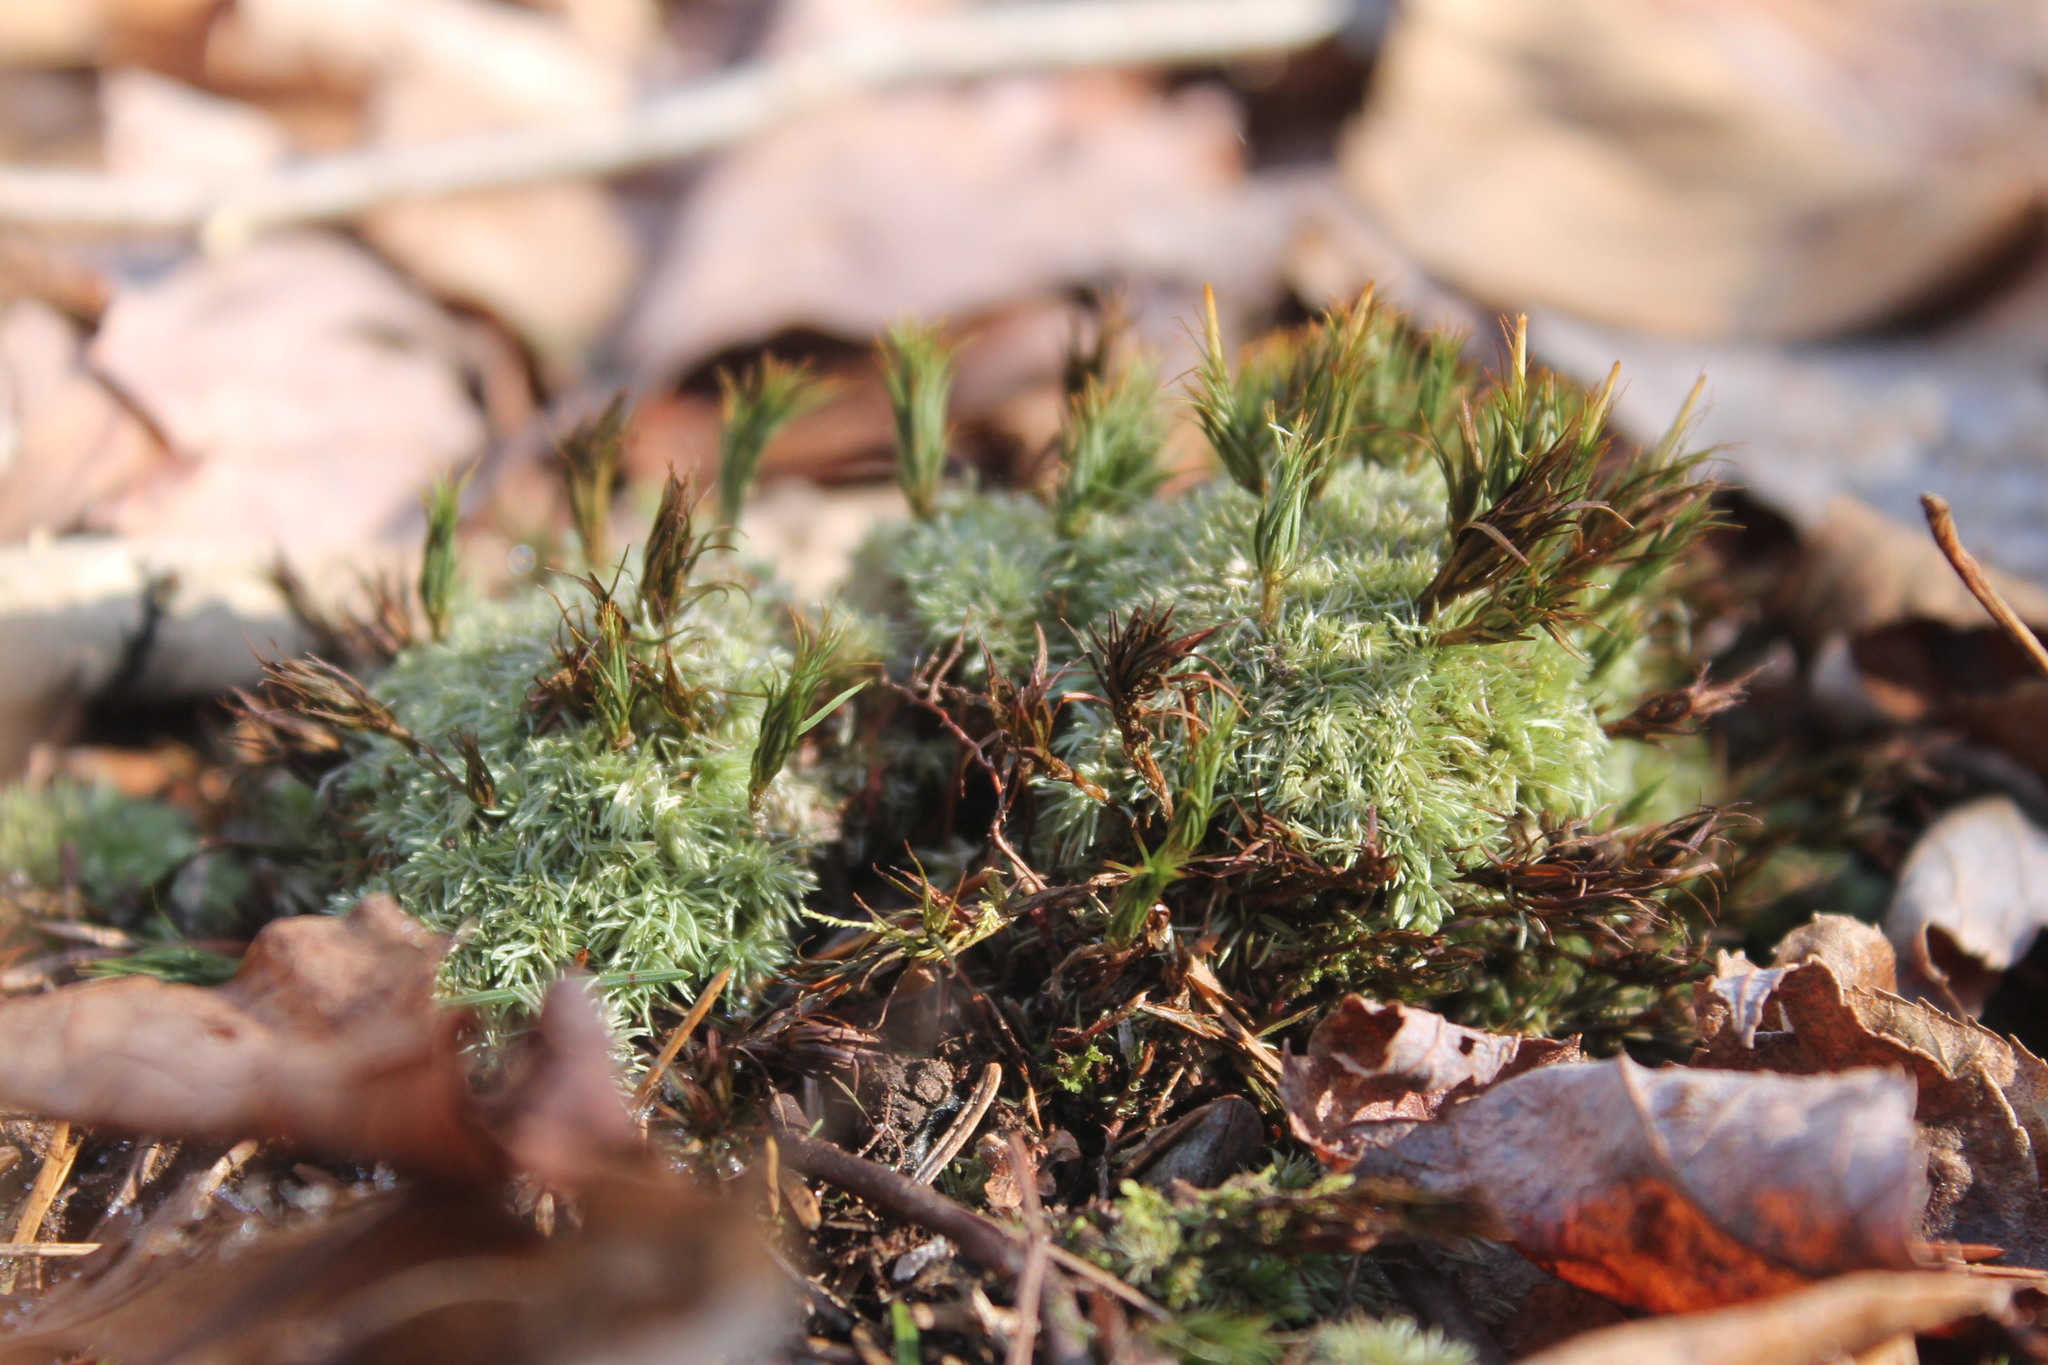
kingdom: Plantae
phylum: Bryophyta
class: Bryopsida
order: Dicranales
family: Leucobryaceae
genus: Leucobryum
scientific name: Leucobryum albidum
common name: White moss
